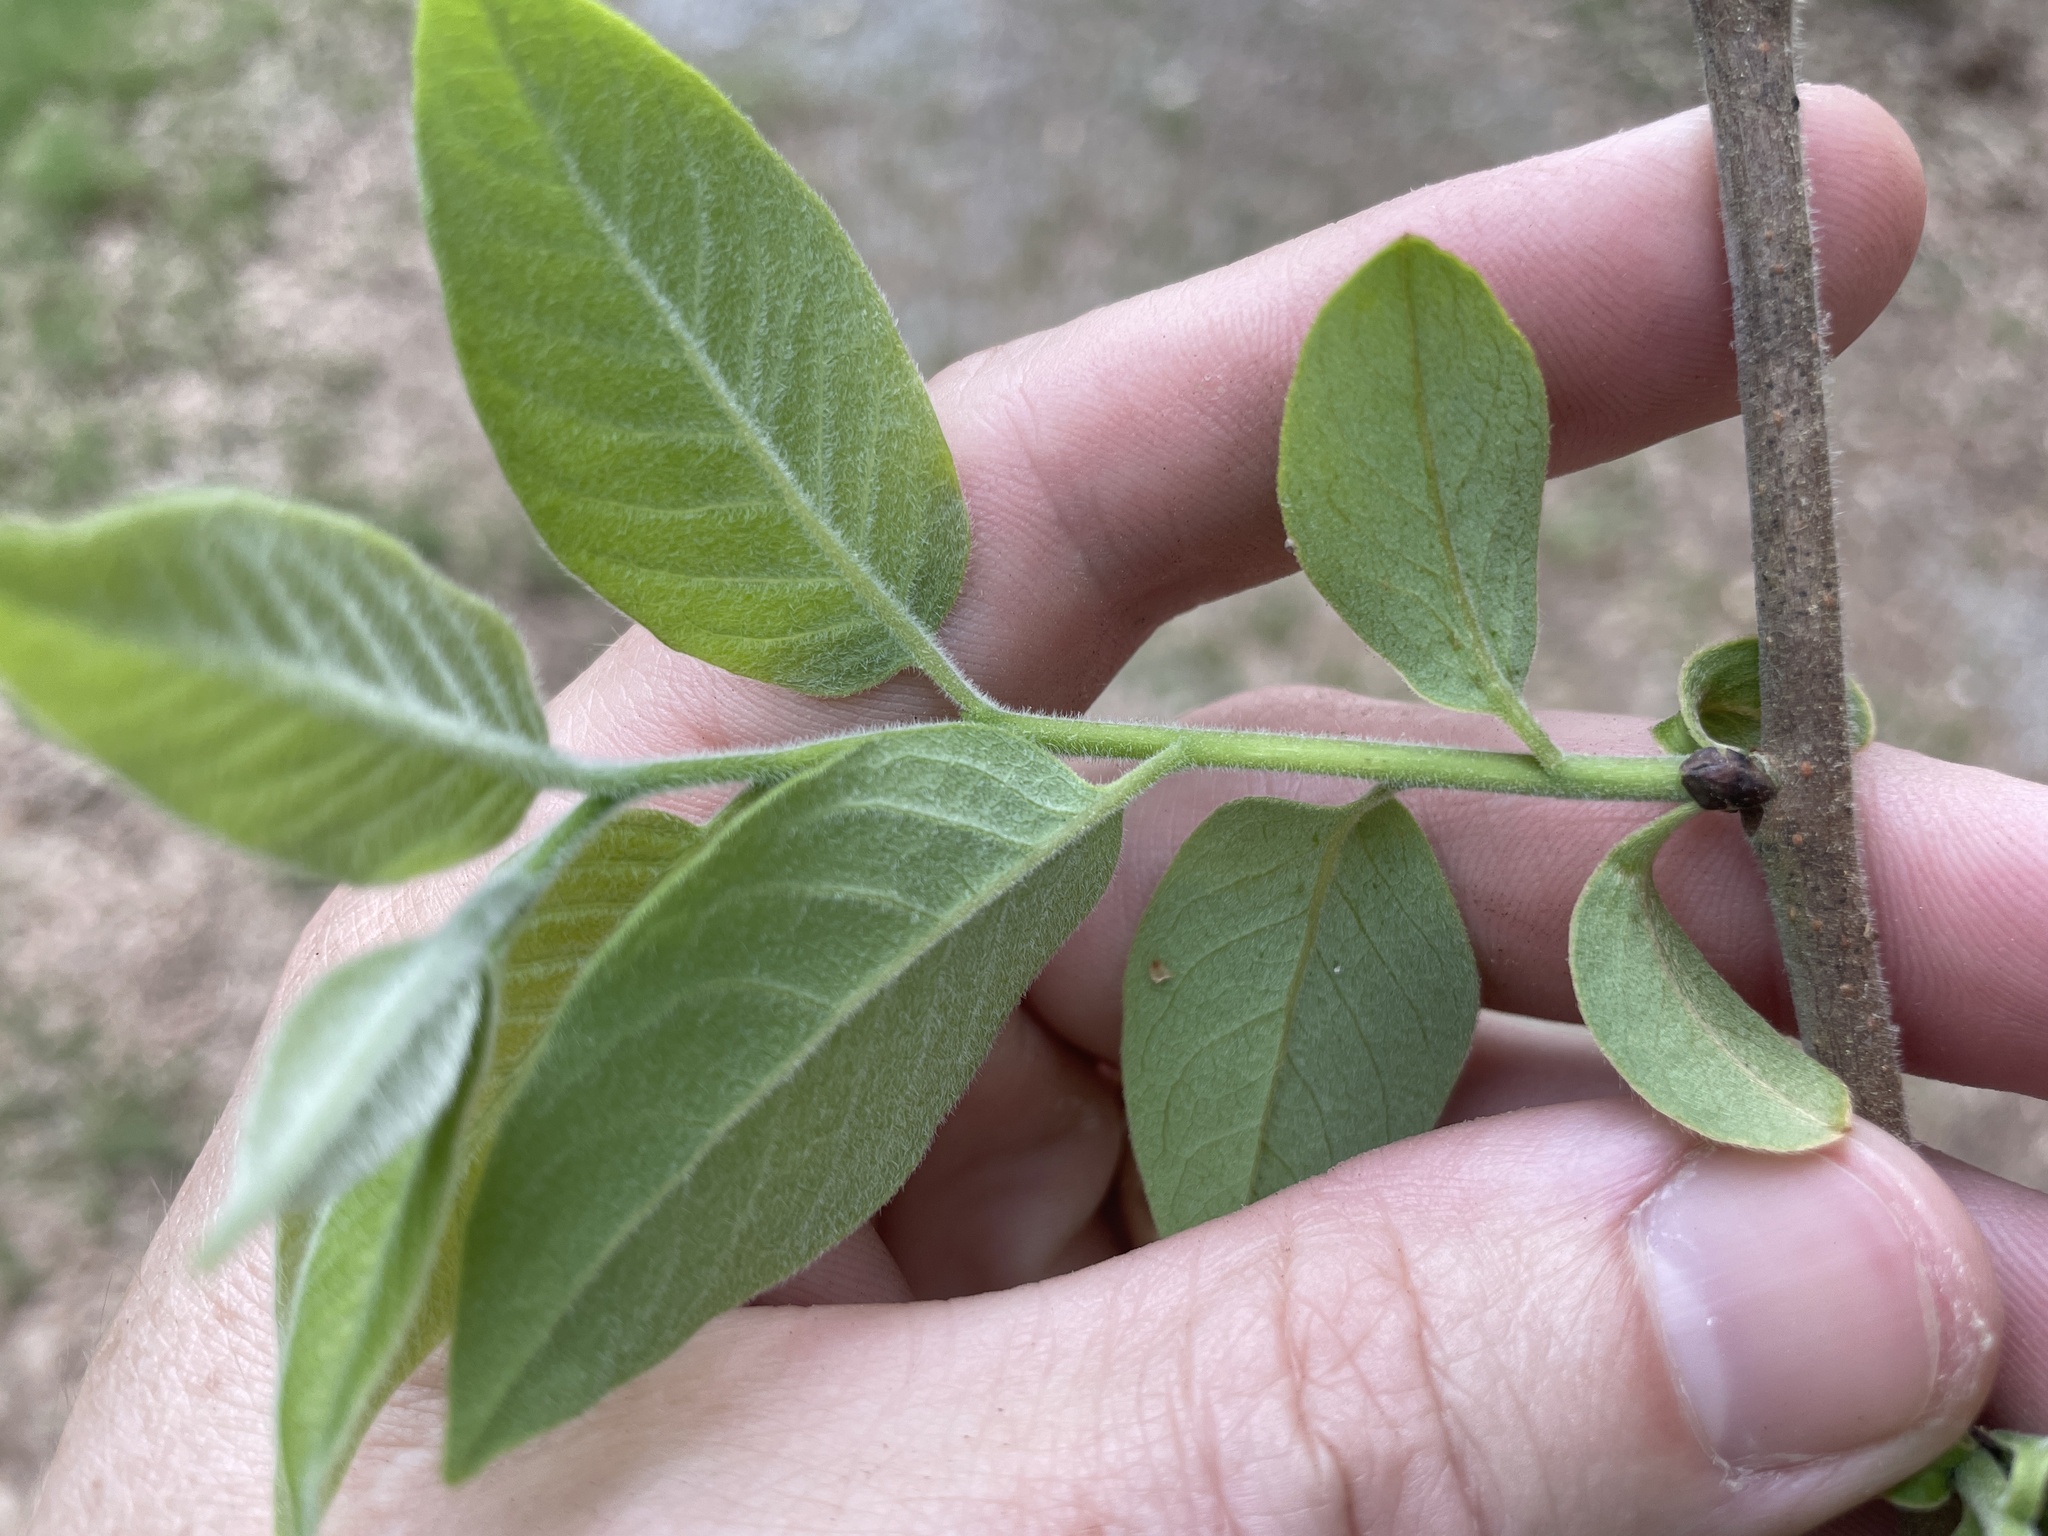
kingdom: Plantae
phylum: Tracheophyta
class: Magnoliopsida
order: Ericales
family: Ebenaceae
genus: Diospyros
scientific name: Diospyros virginiana
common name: Persimmon
